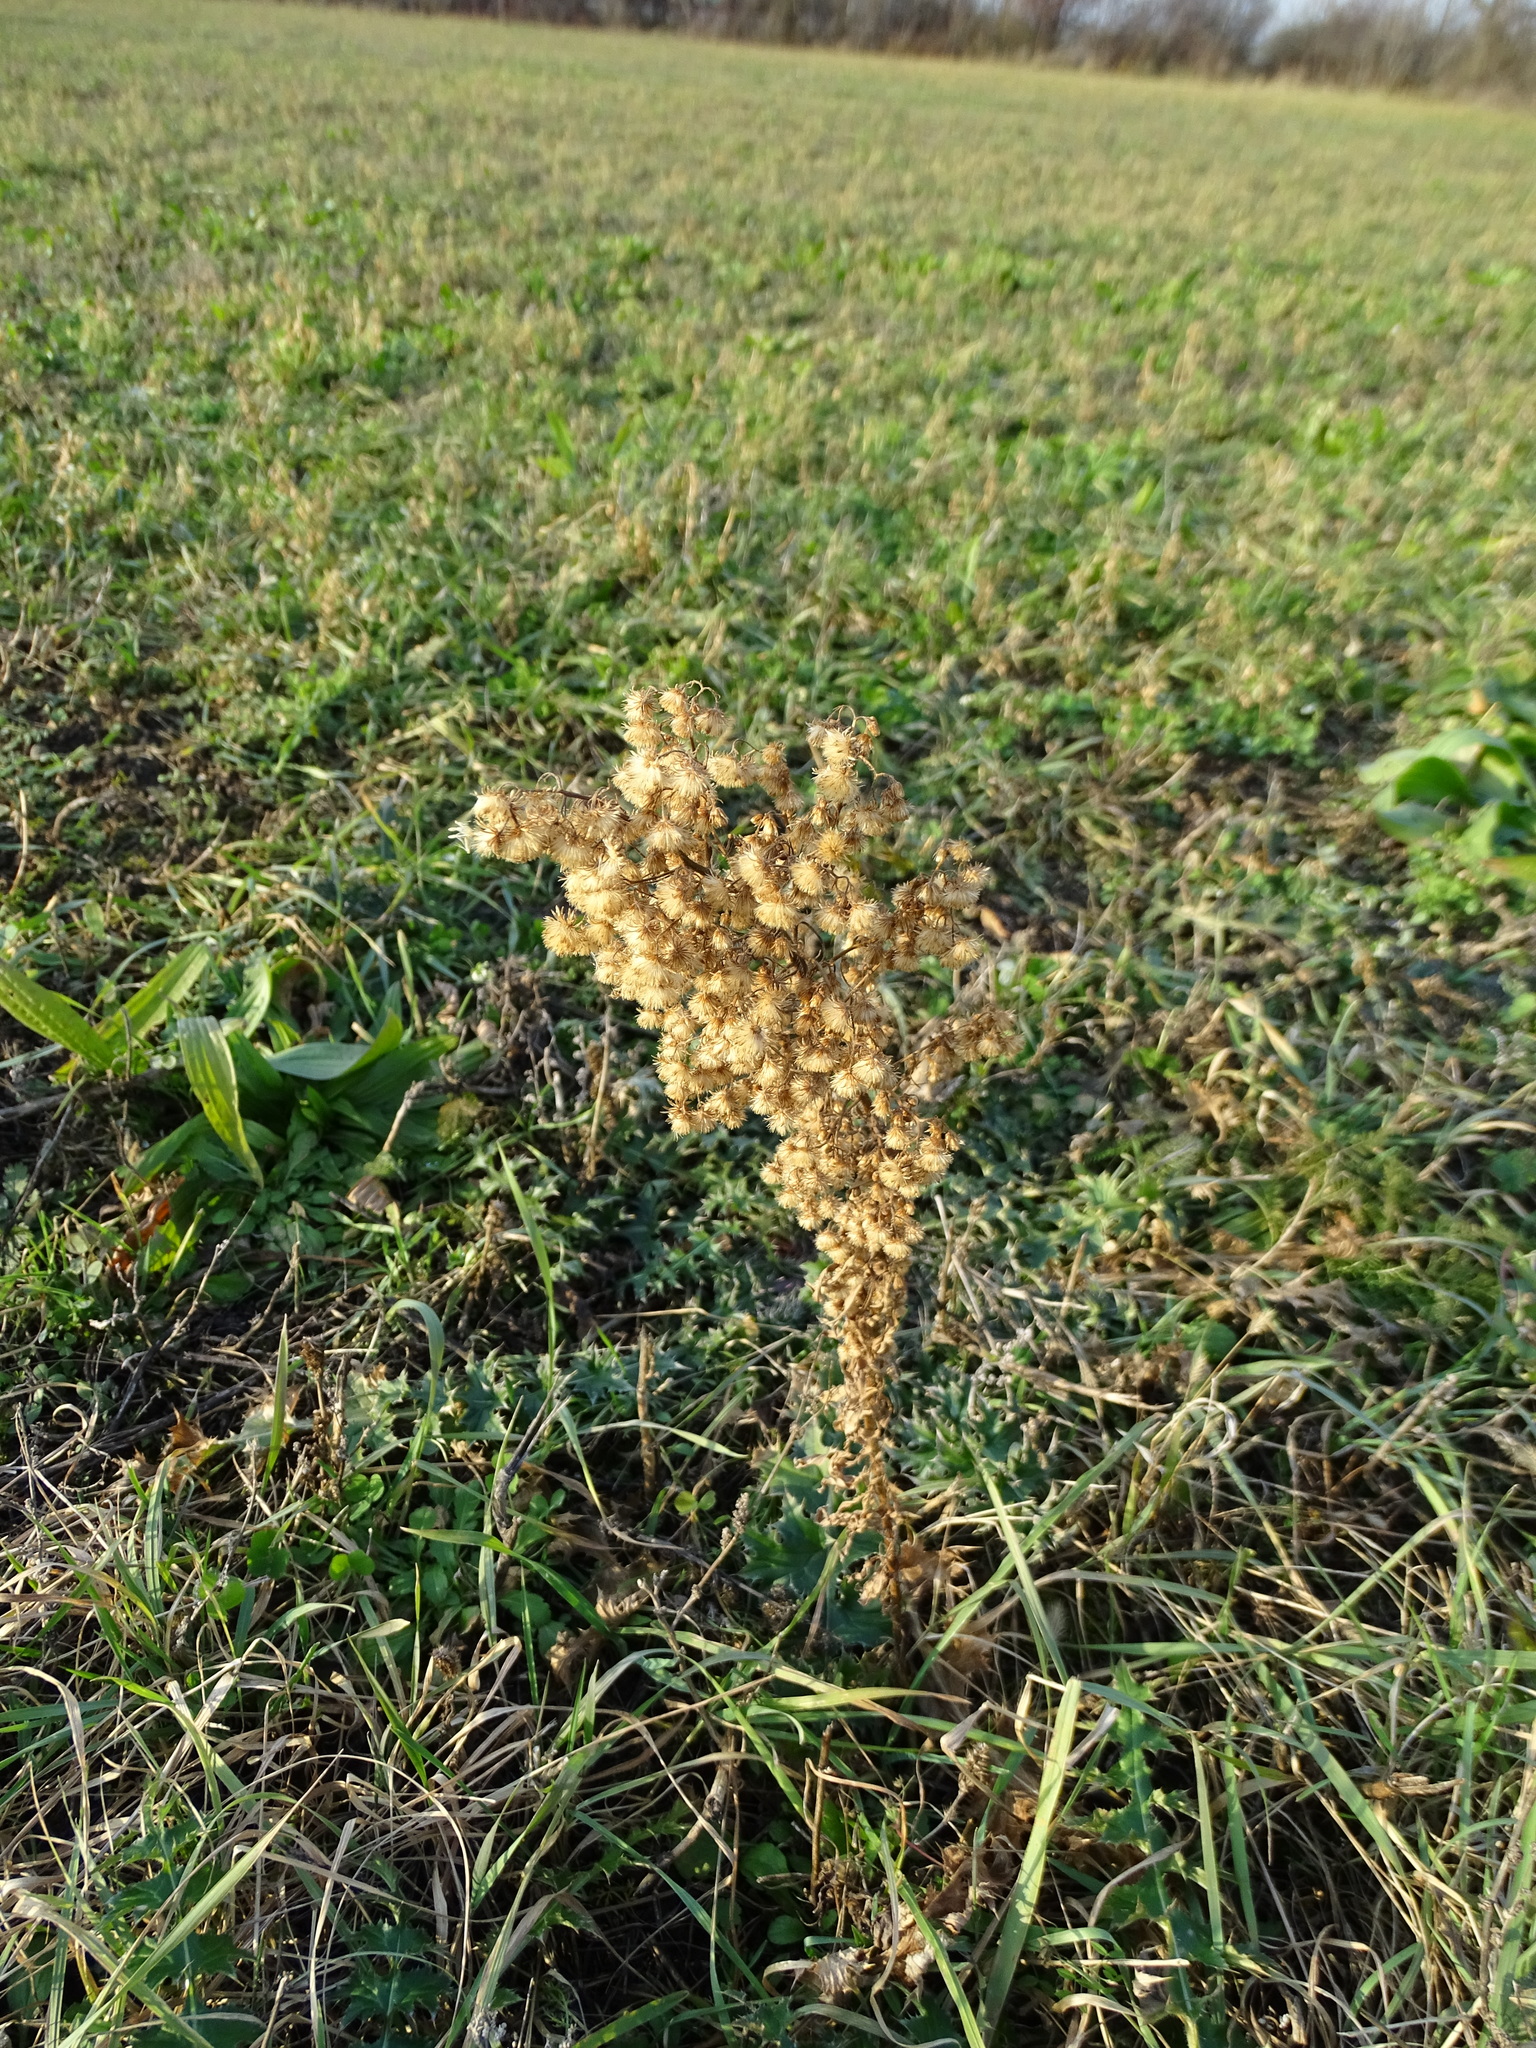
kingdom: Plantae
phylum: Tracheophyta
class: Magnoliopsida
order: Asterales
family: Asteraceae
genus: Erigeron
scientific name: Erigeron canadensis
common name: Canadian fleabane
